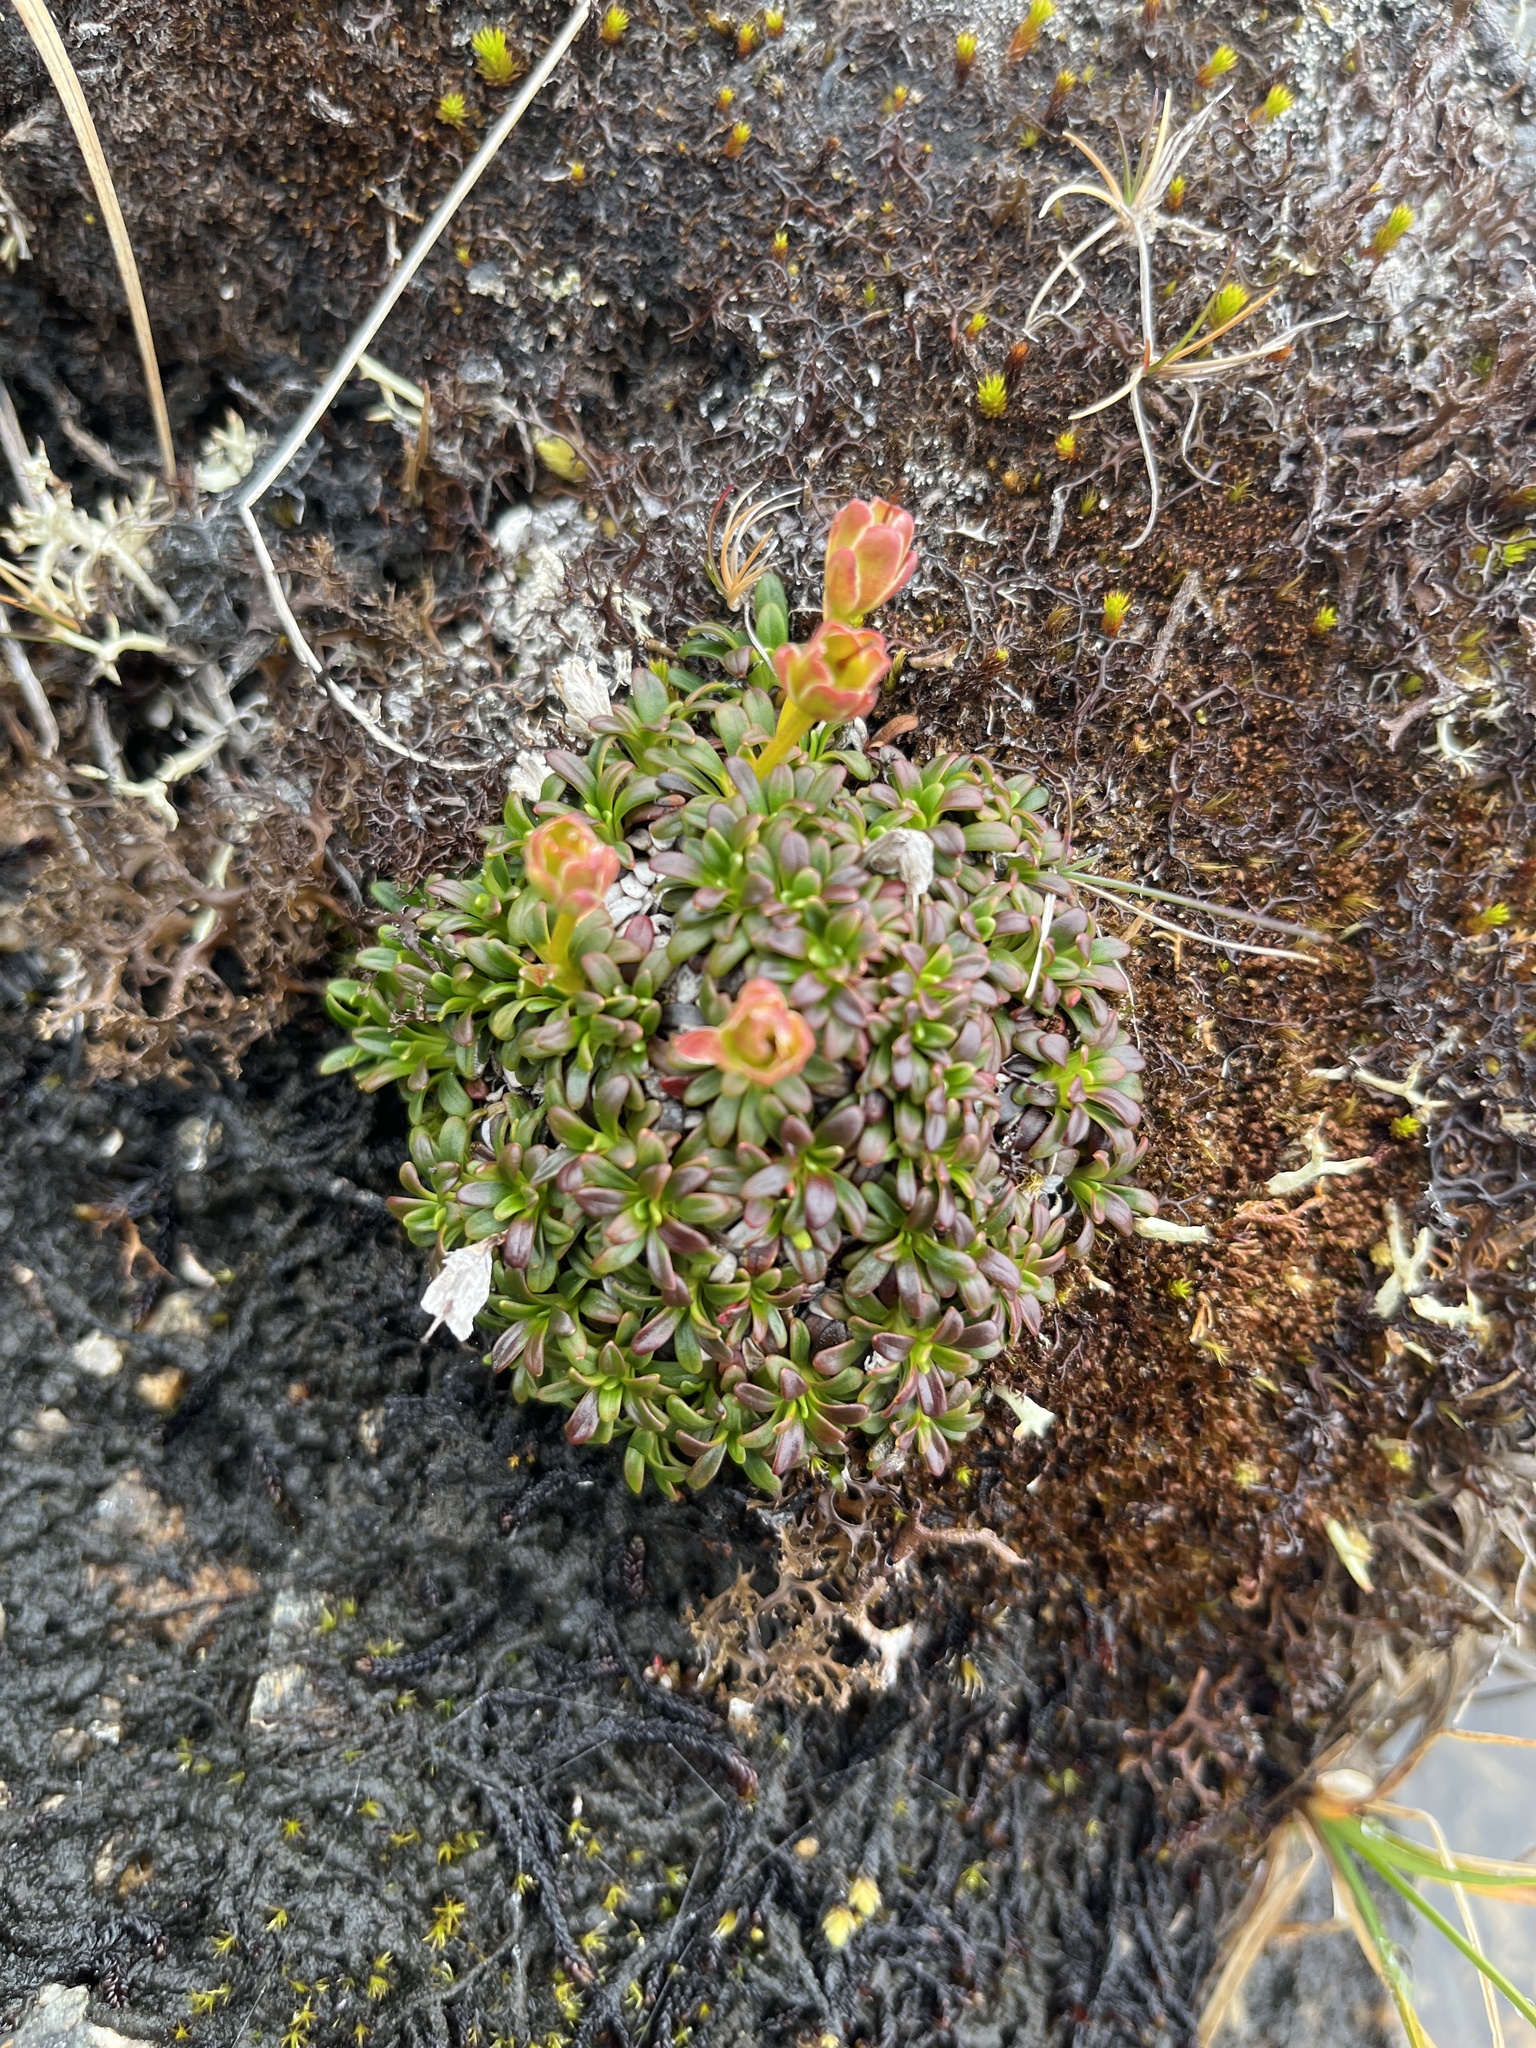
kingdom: Plantae
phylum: Tracheophyta
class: Magnoliopsida
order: Ericales
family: Diapensiaceae
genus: Diapensia
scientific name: Diapensia lapponica
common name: Diapensia
